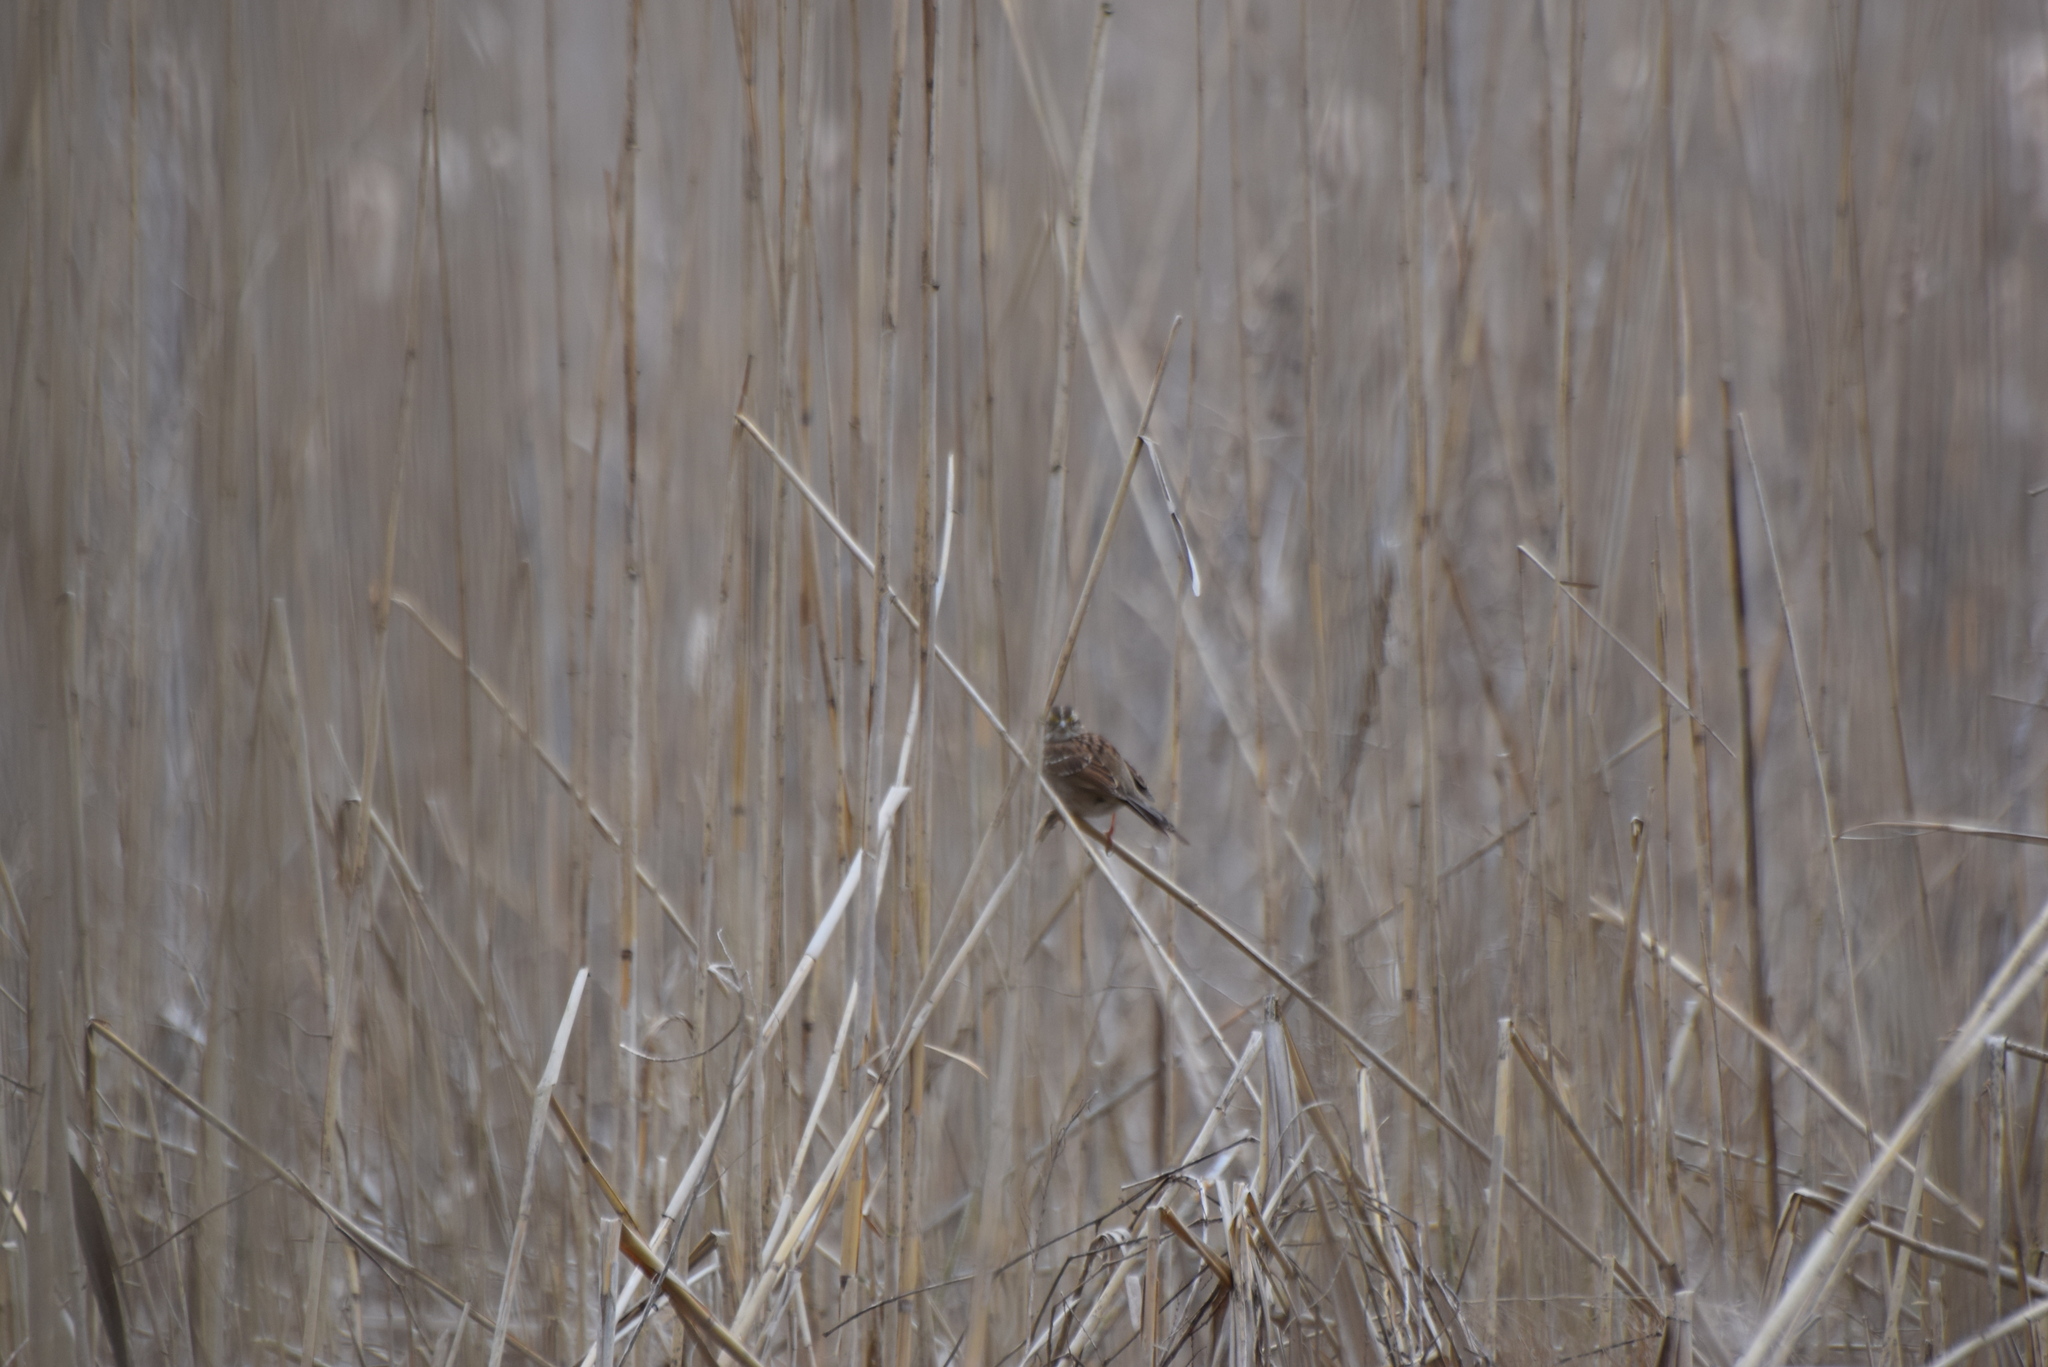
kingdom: Animalia
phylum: Chordata
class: Aves
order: Passeriformes
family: Passerellidae
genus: Zonotrichia
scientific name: Zonotrichia albicollis
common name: White-throated sparrow
